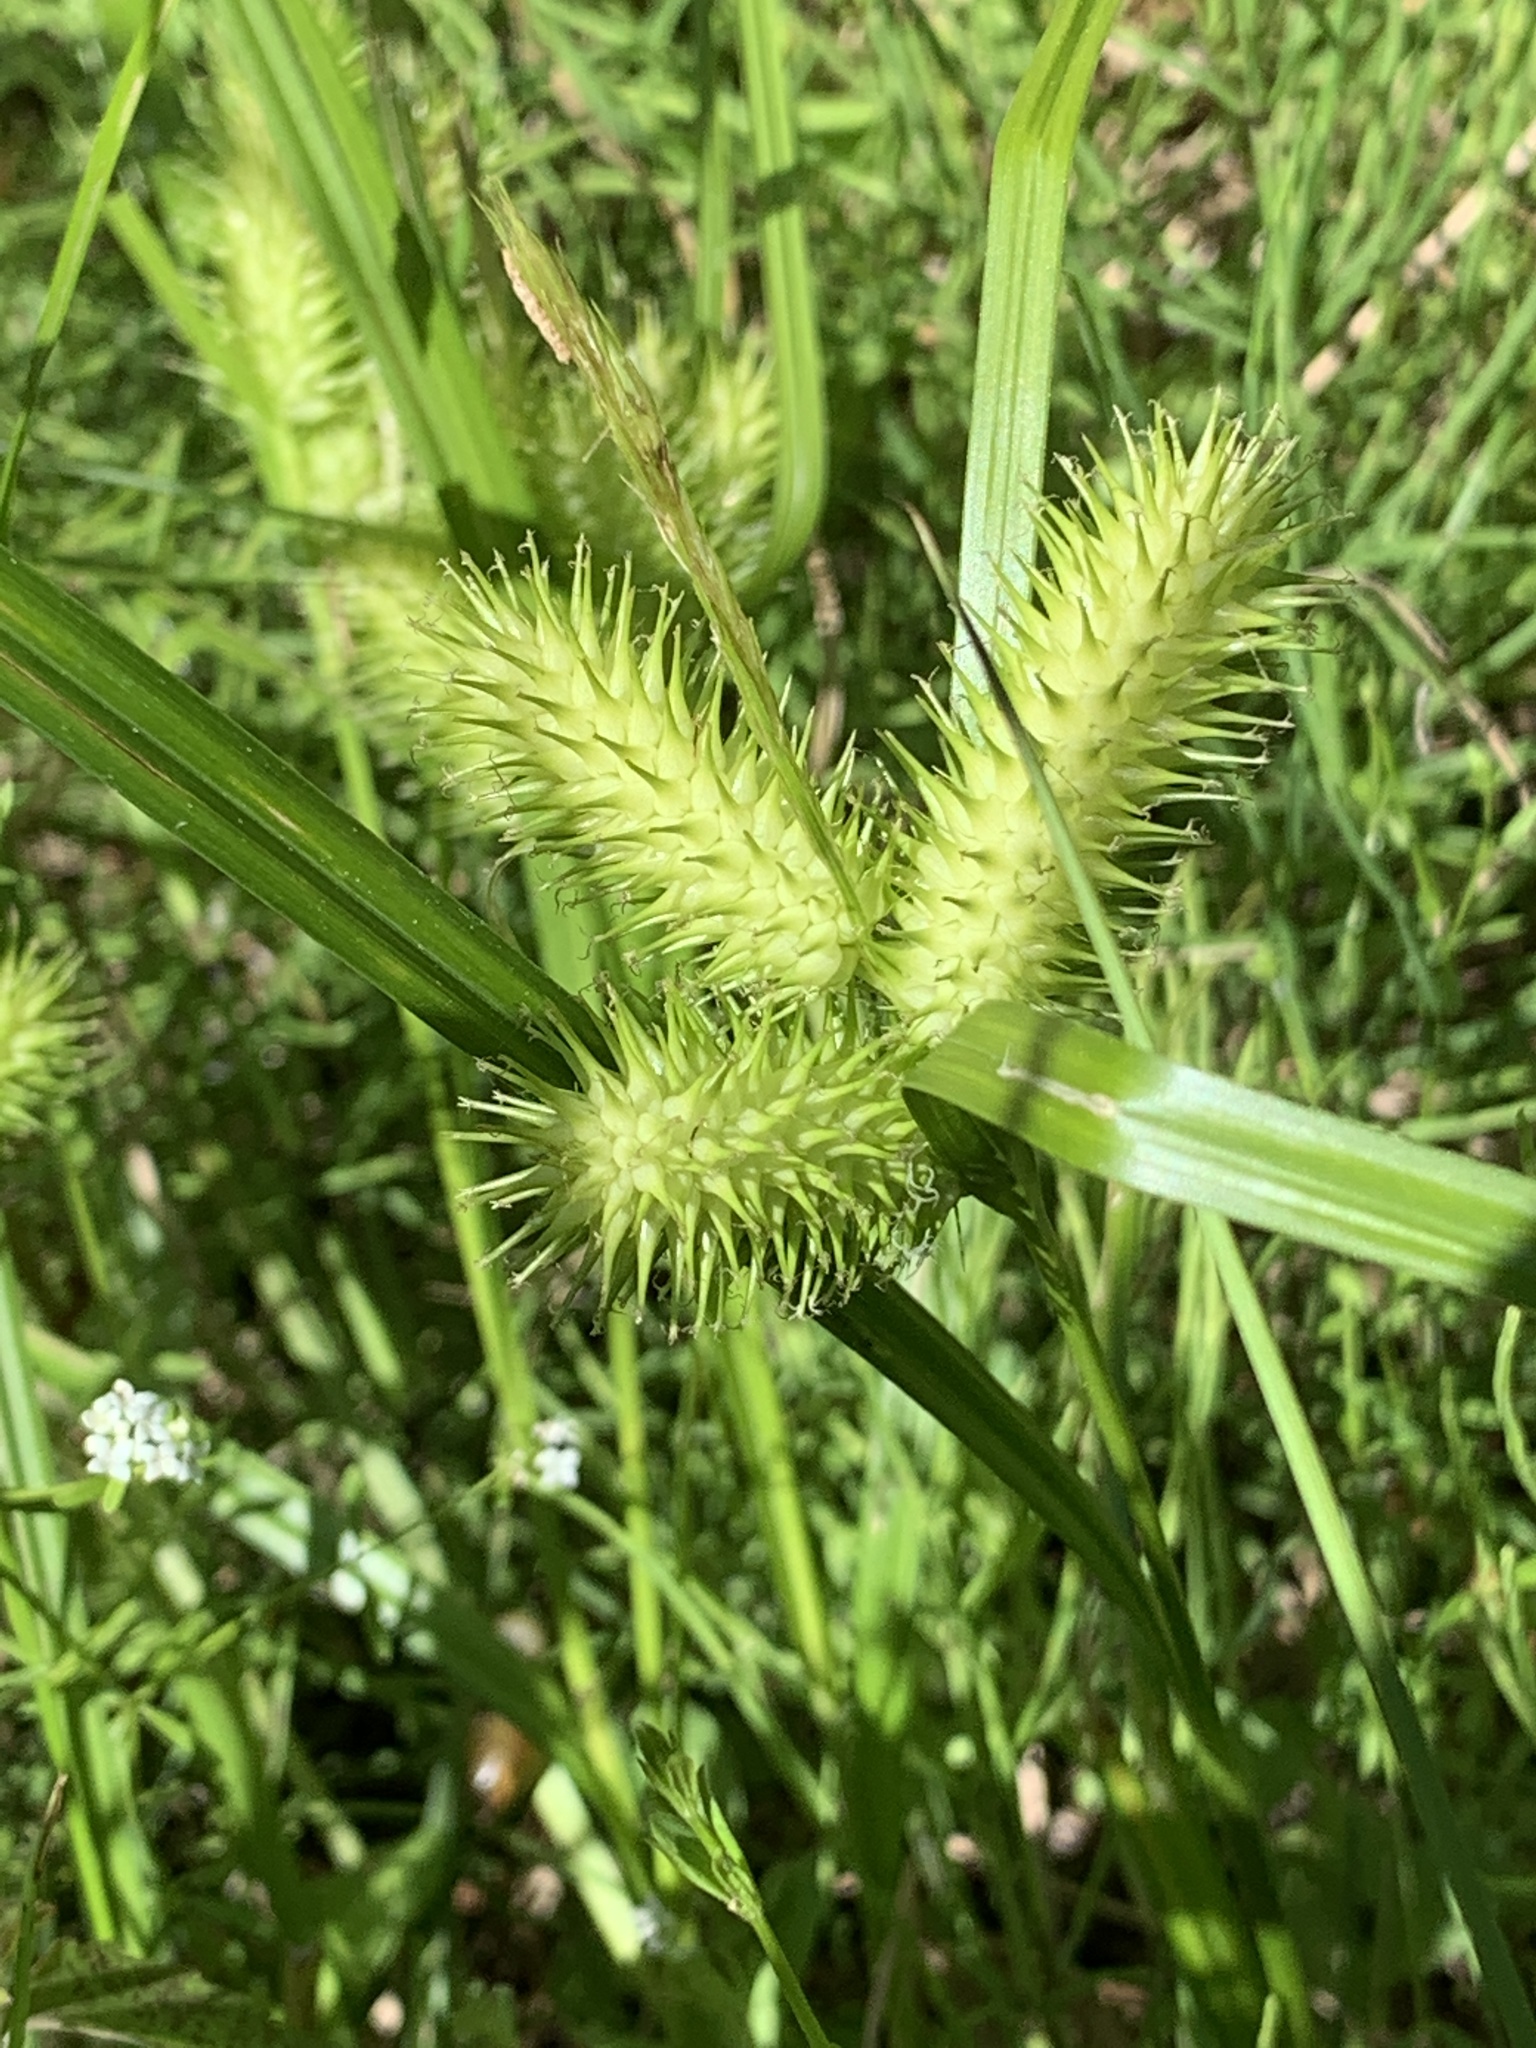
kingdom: Plantae
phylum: Tracheophyta
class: Liliopsida
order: Poales
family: Cyperaceae
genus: Carex
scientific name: Carex lurida
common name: Sallow sedge
